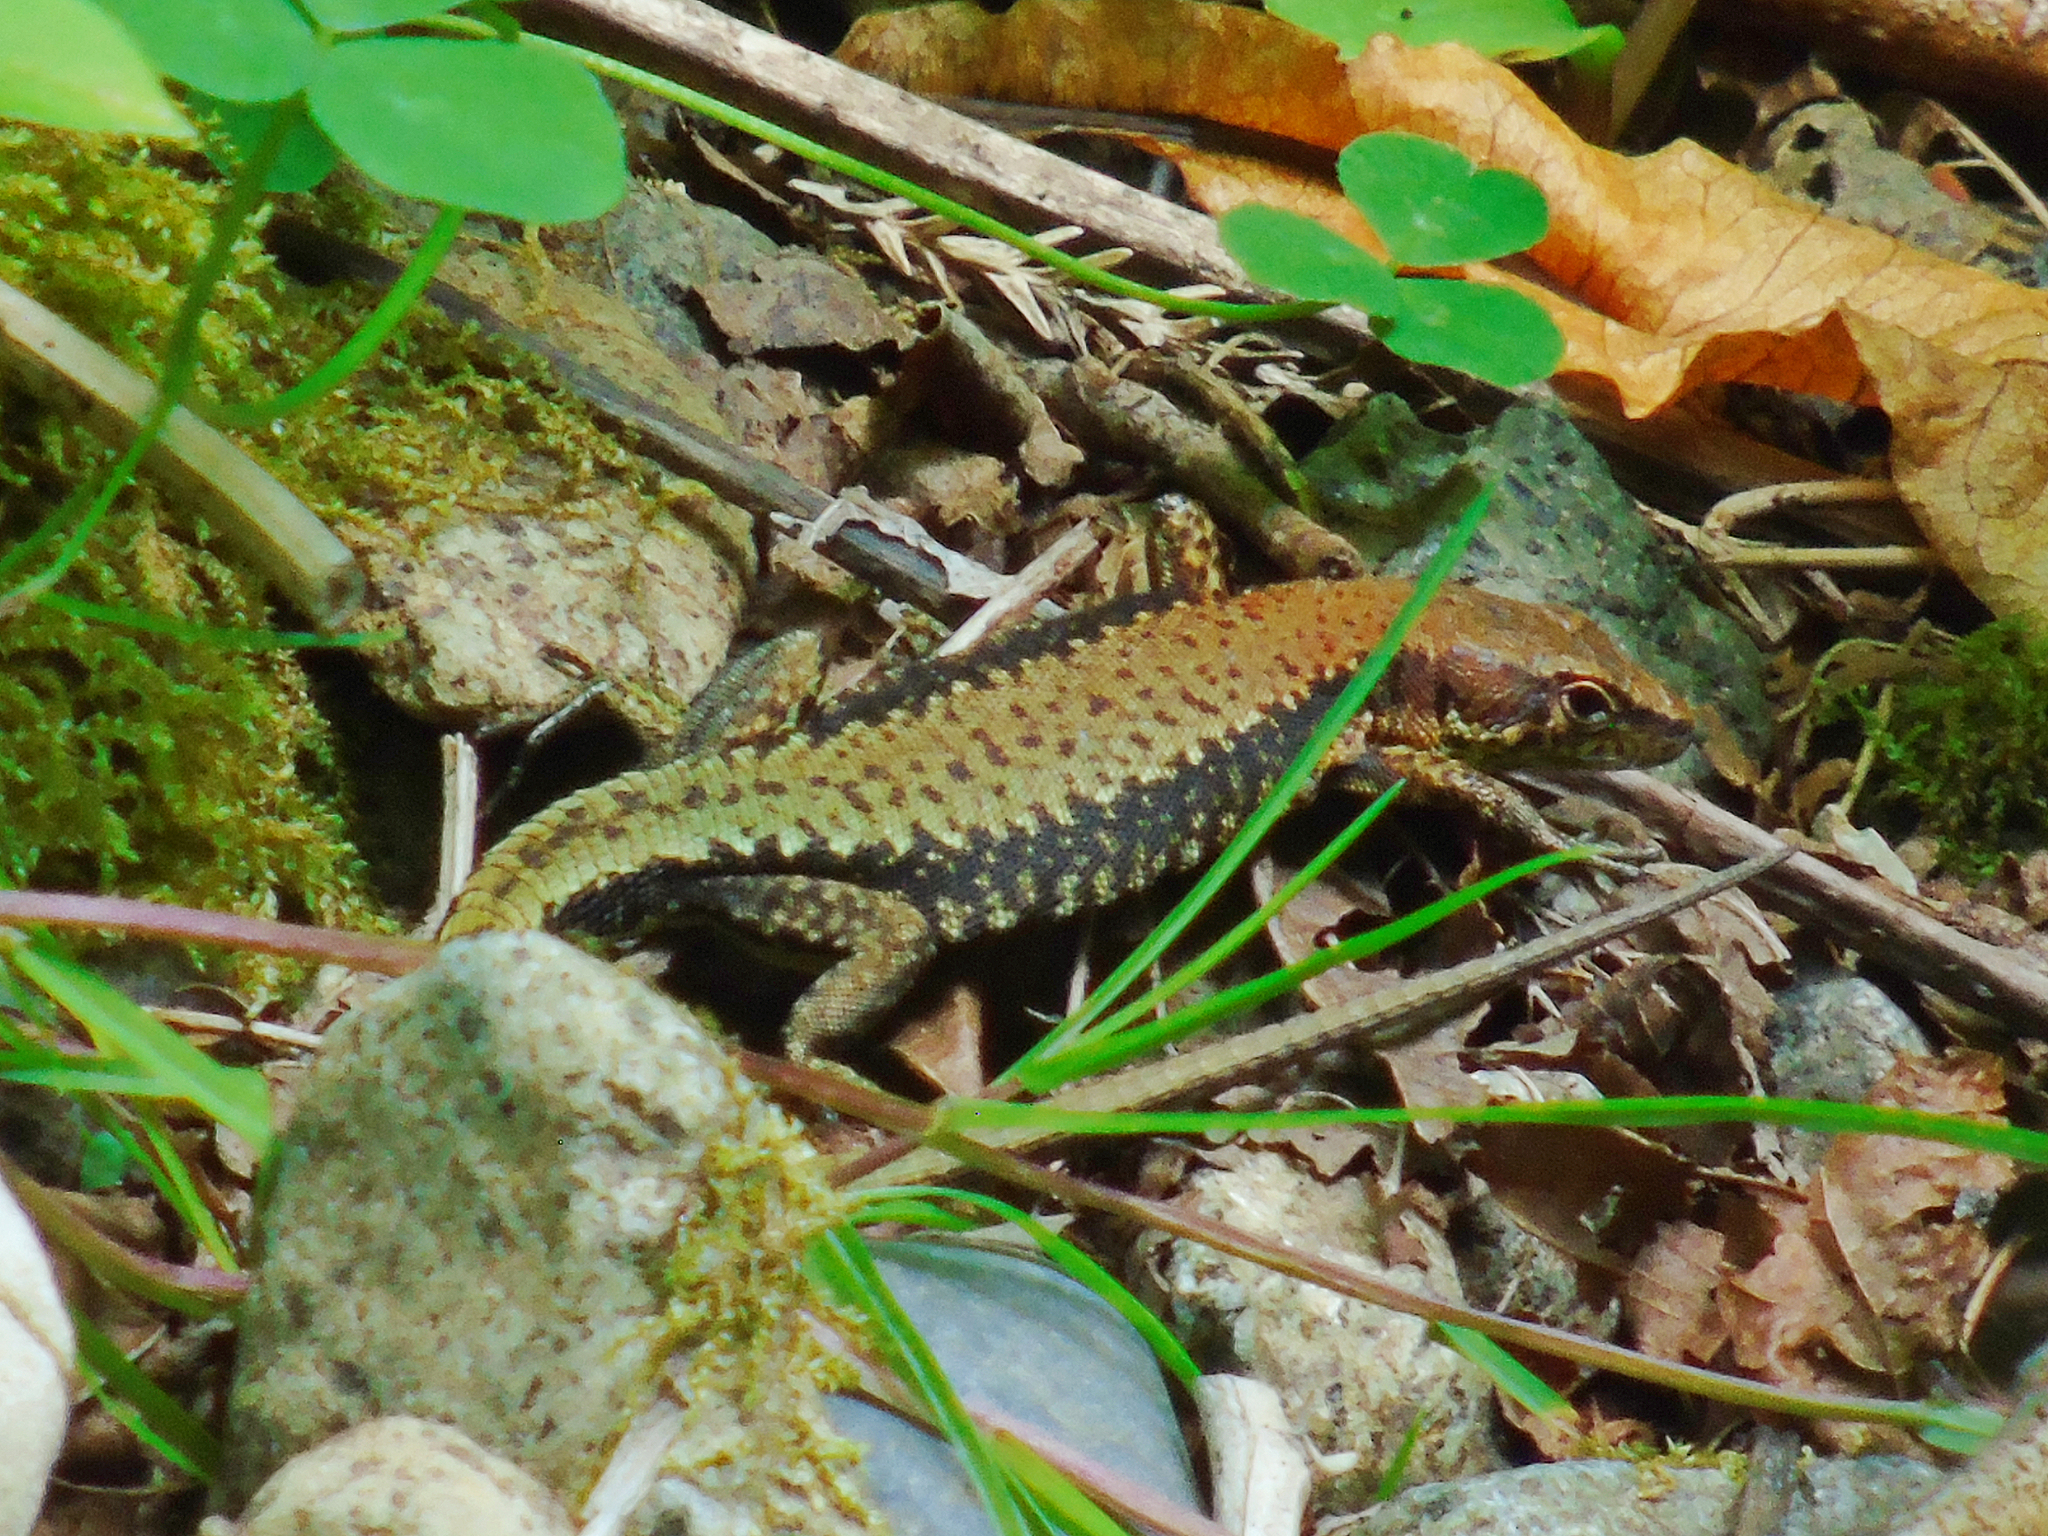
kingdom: Animalia
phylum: Chordata
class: Squamata
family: Lacertidae
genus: Darevskia
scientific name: Darevskia derjugini
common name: Derjugin's lizard
